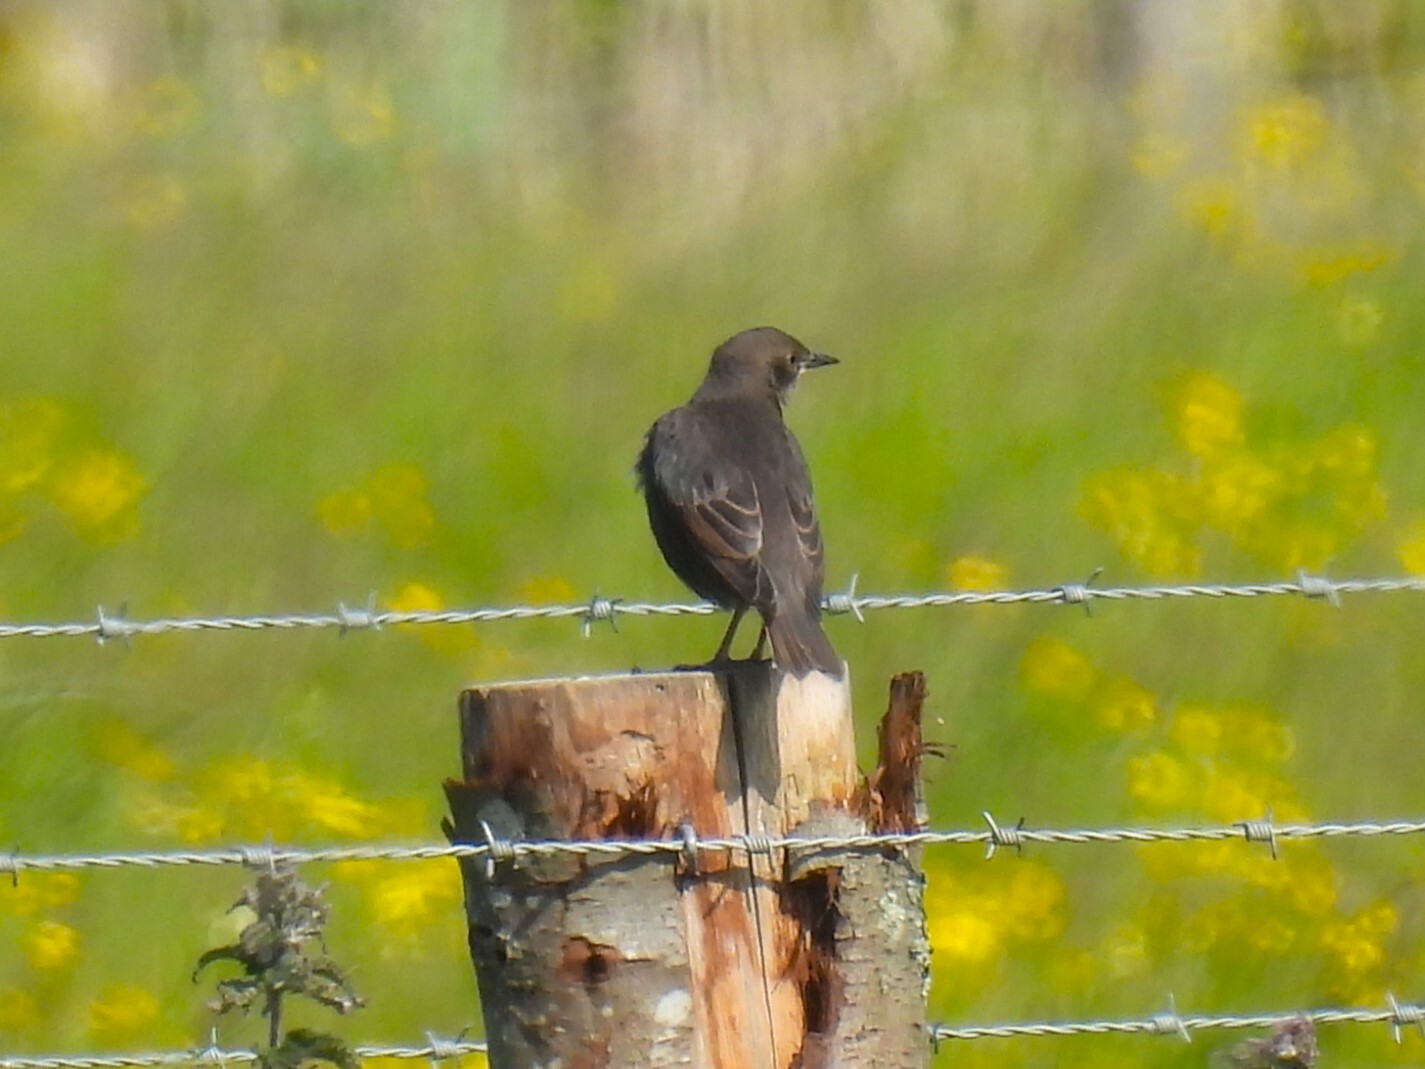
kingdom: Animalia
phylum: Chordata
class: Aves
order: Passeriformes
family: Sturnidae
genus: Sturnus
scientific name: Sturnus vulgaris
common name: Common starling
